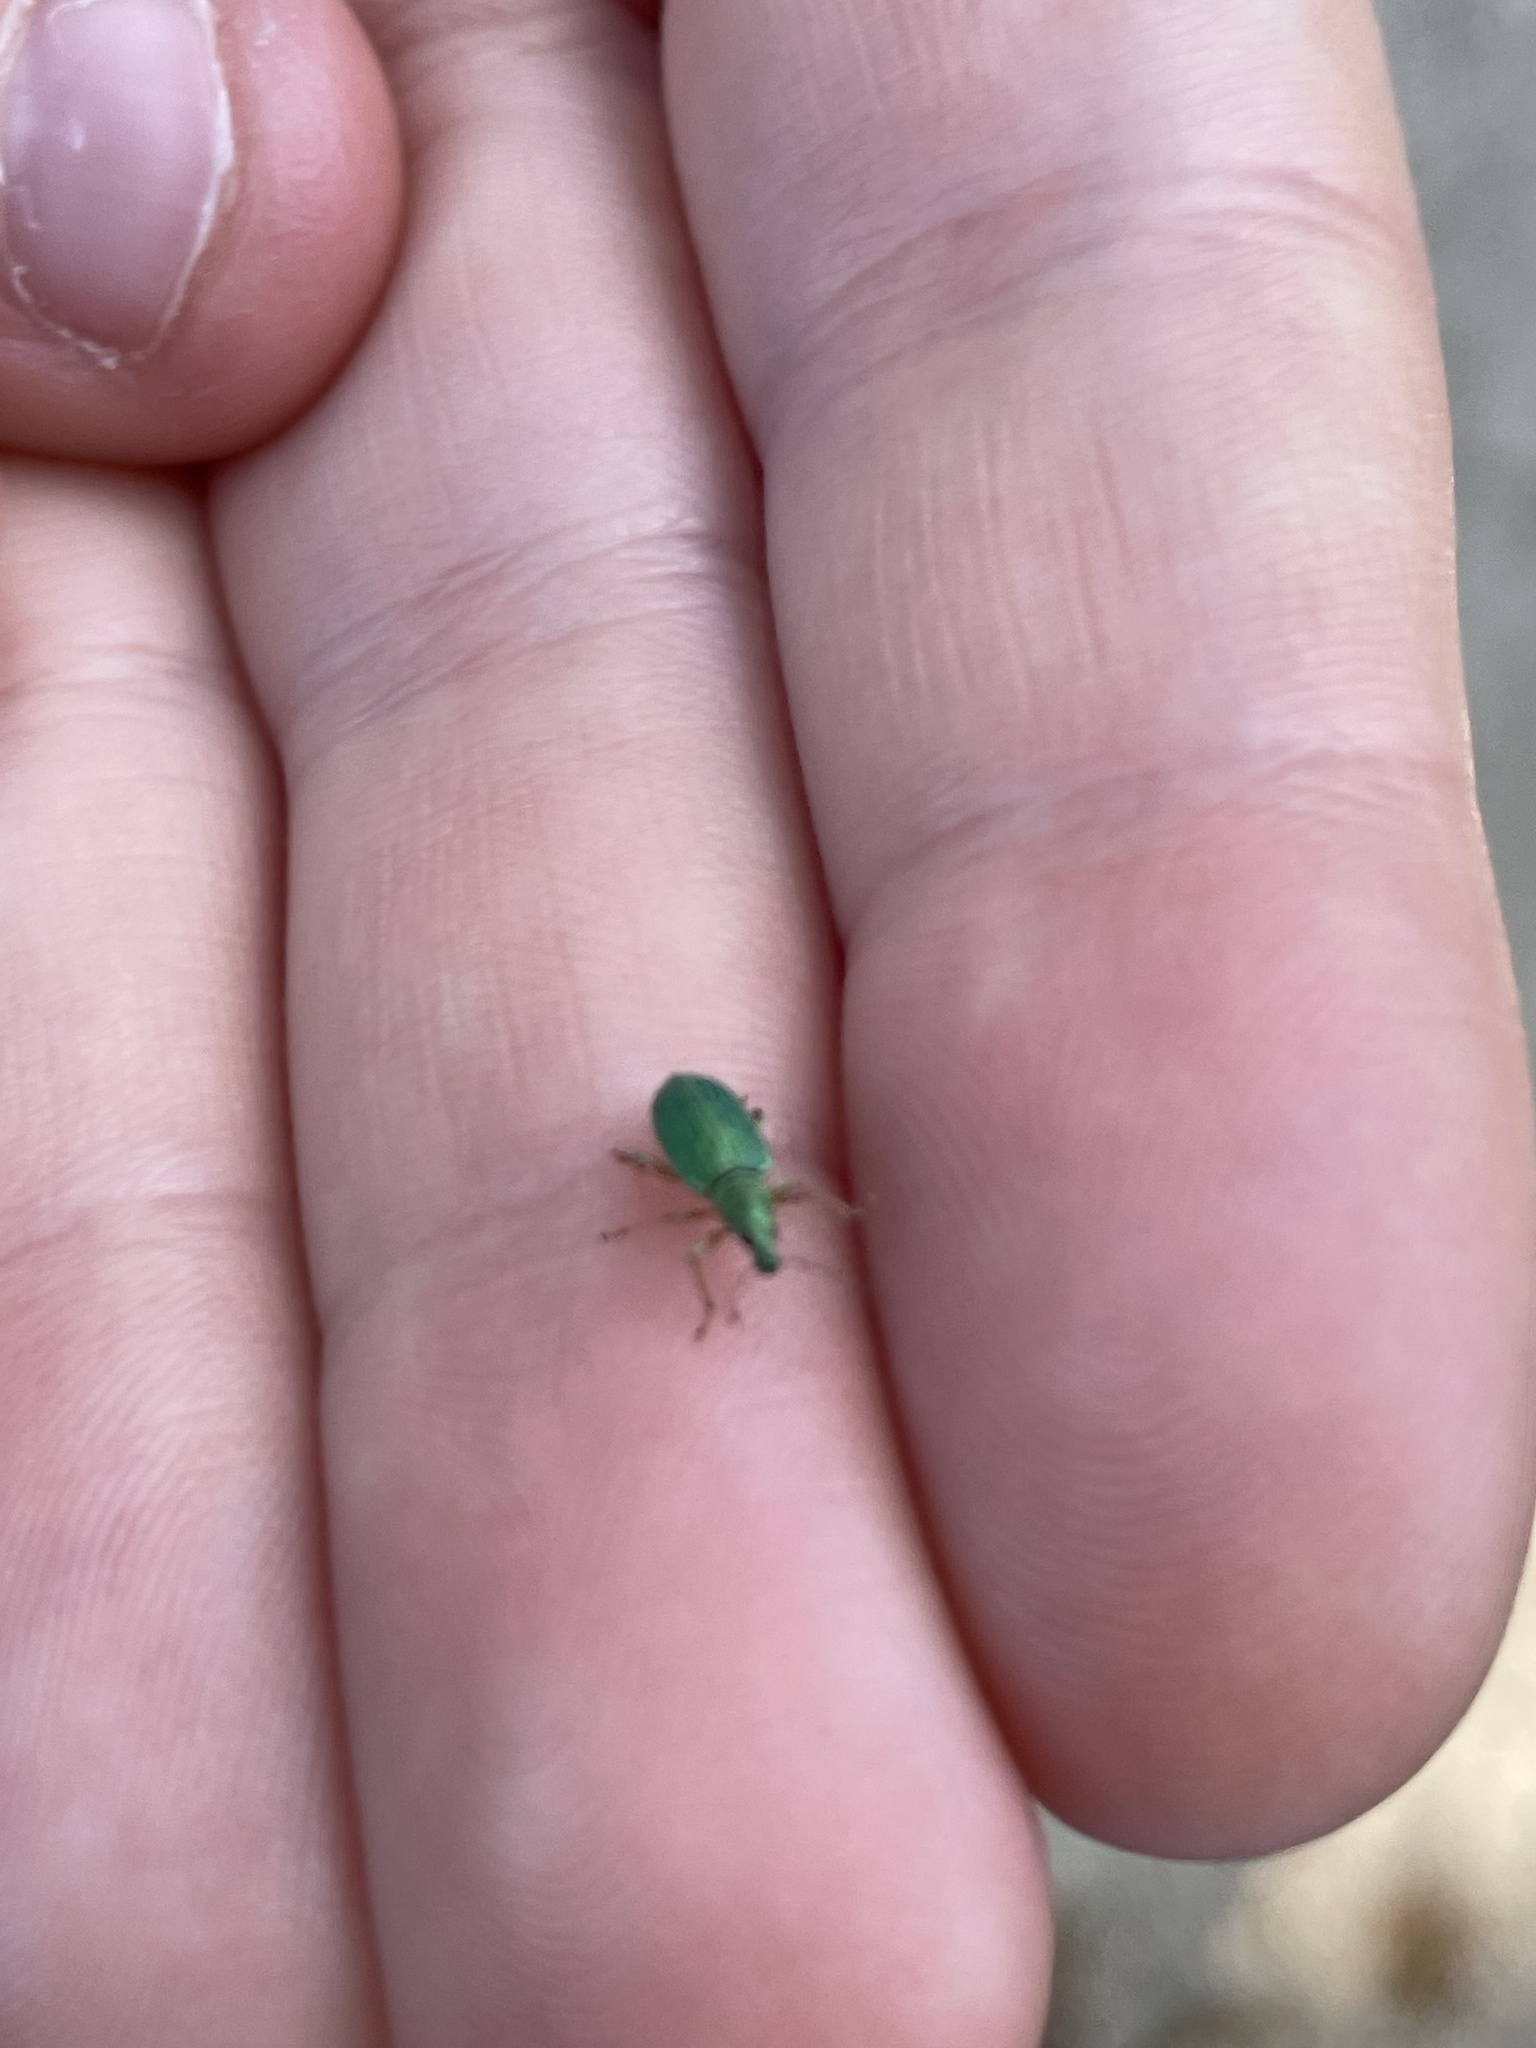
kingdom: Animalia
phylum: Arthropoda
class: Insecta
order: Coleoptera
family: Curculionidae
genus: Polydrusus
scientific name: Polydrusus formosus
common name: Weevil
